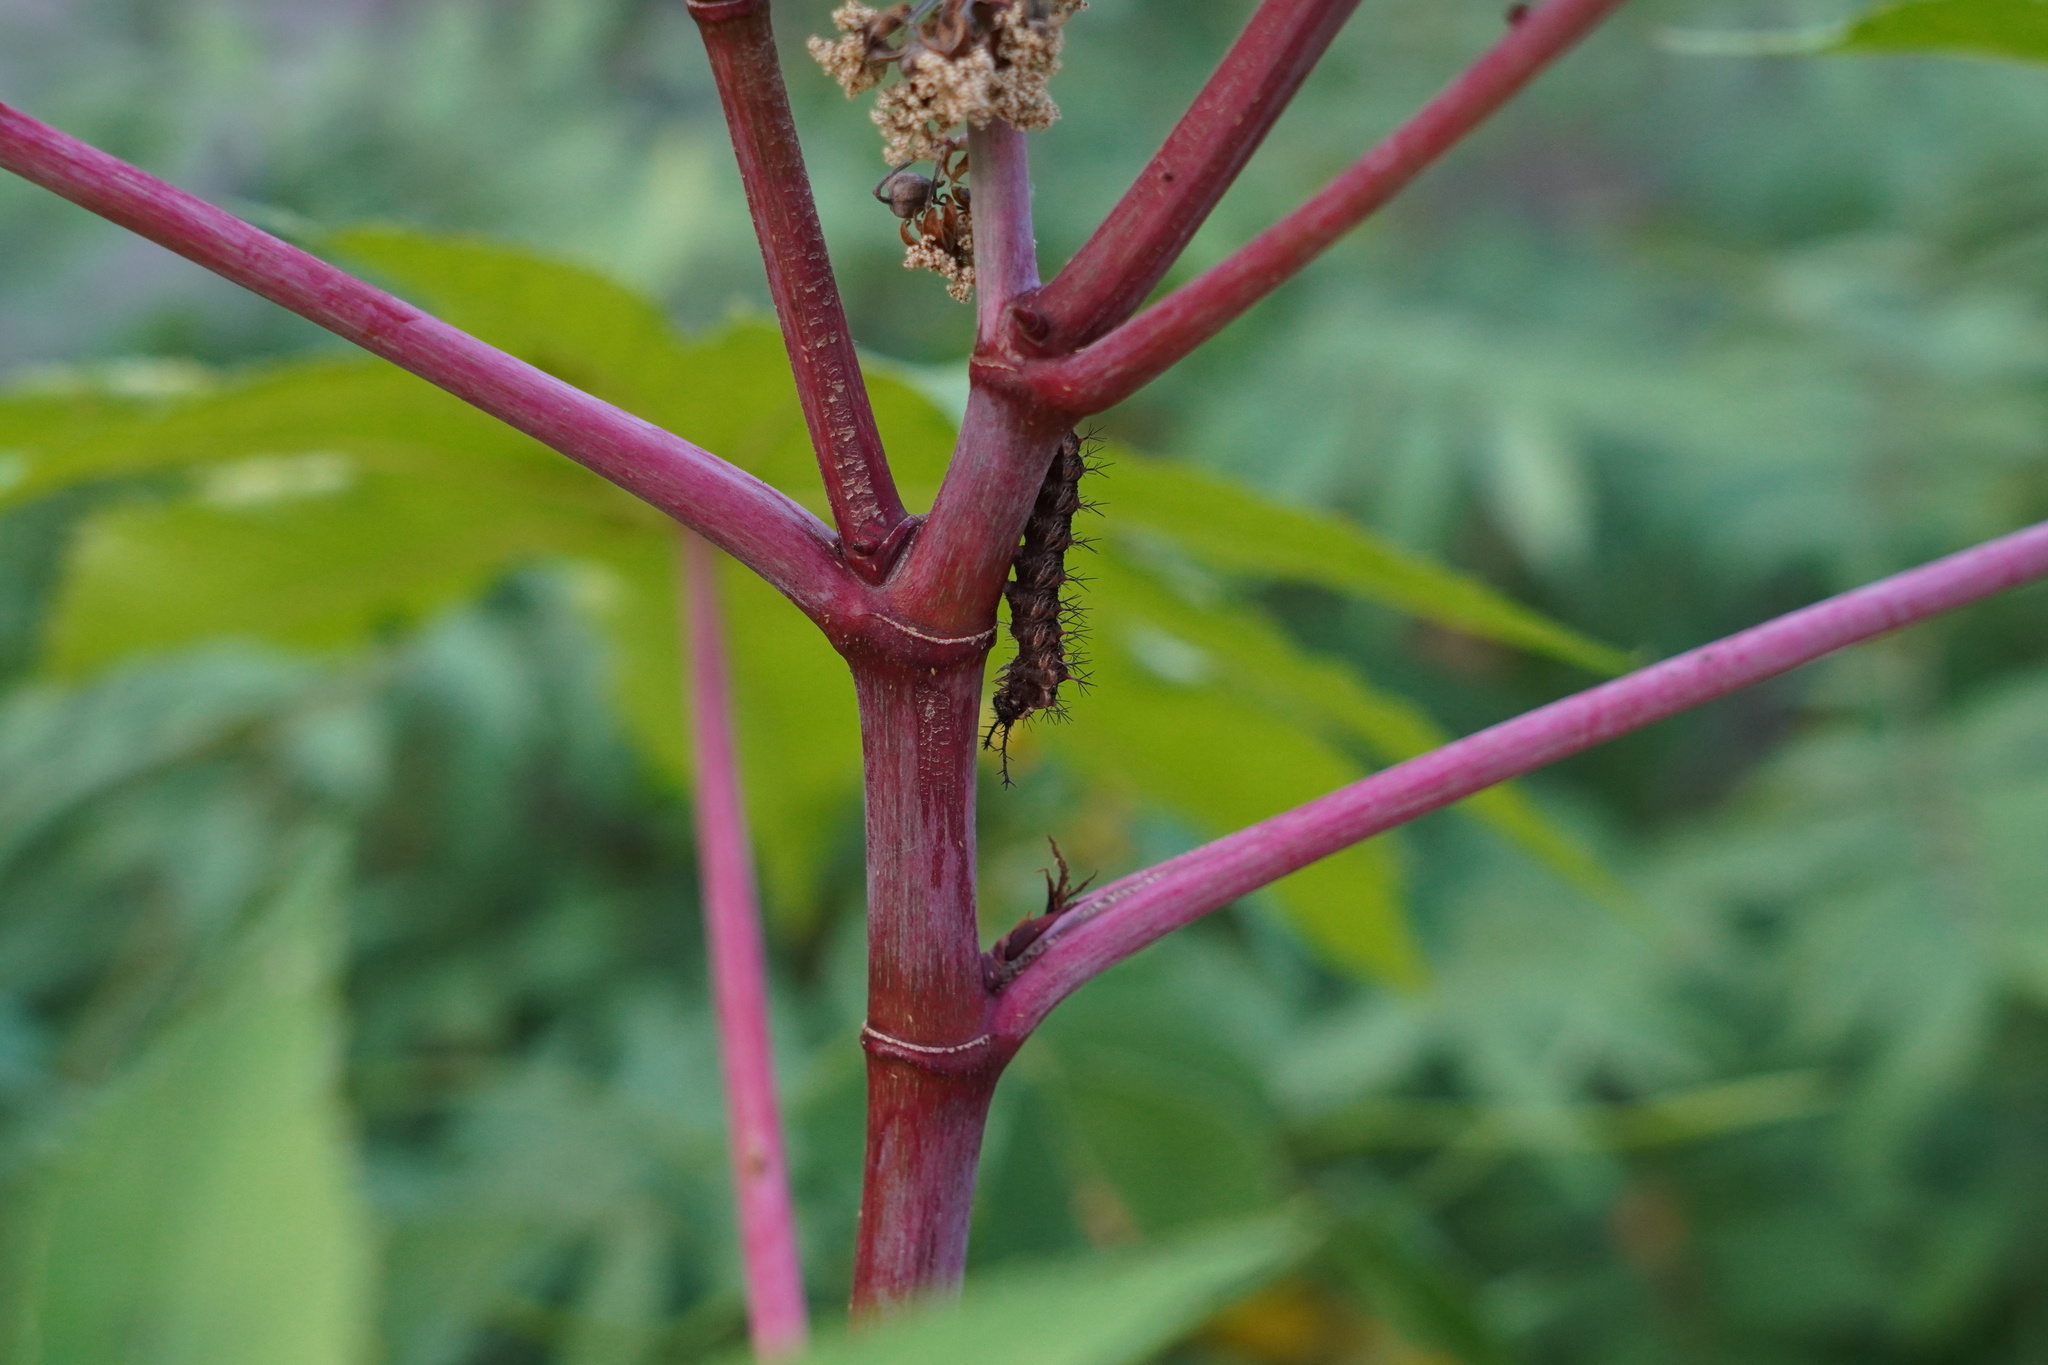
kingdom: Animalia
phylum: Arthropoda
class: Insecta
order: Lepidoptera
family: Nymphalidae
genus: Ariadne
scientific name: Ariadne ariadne
